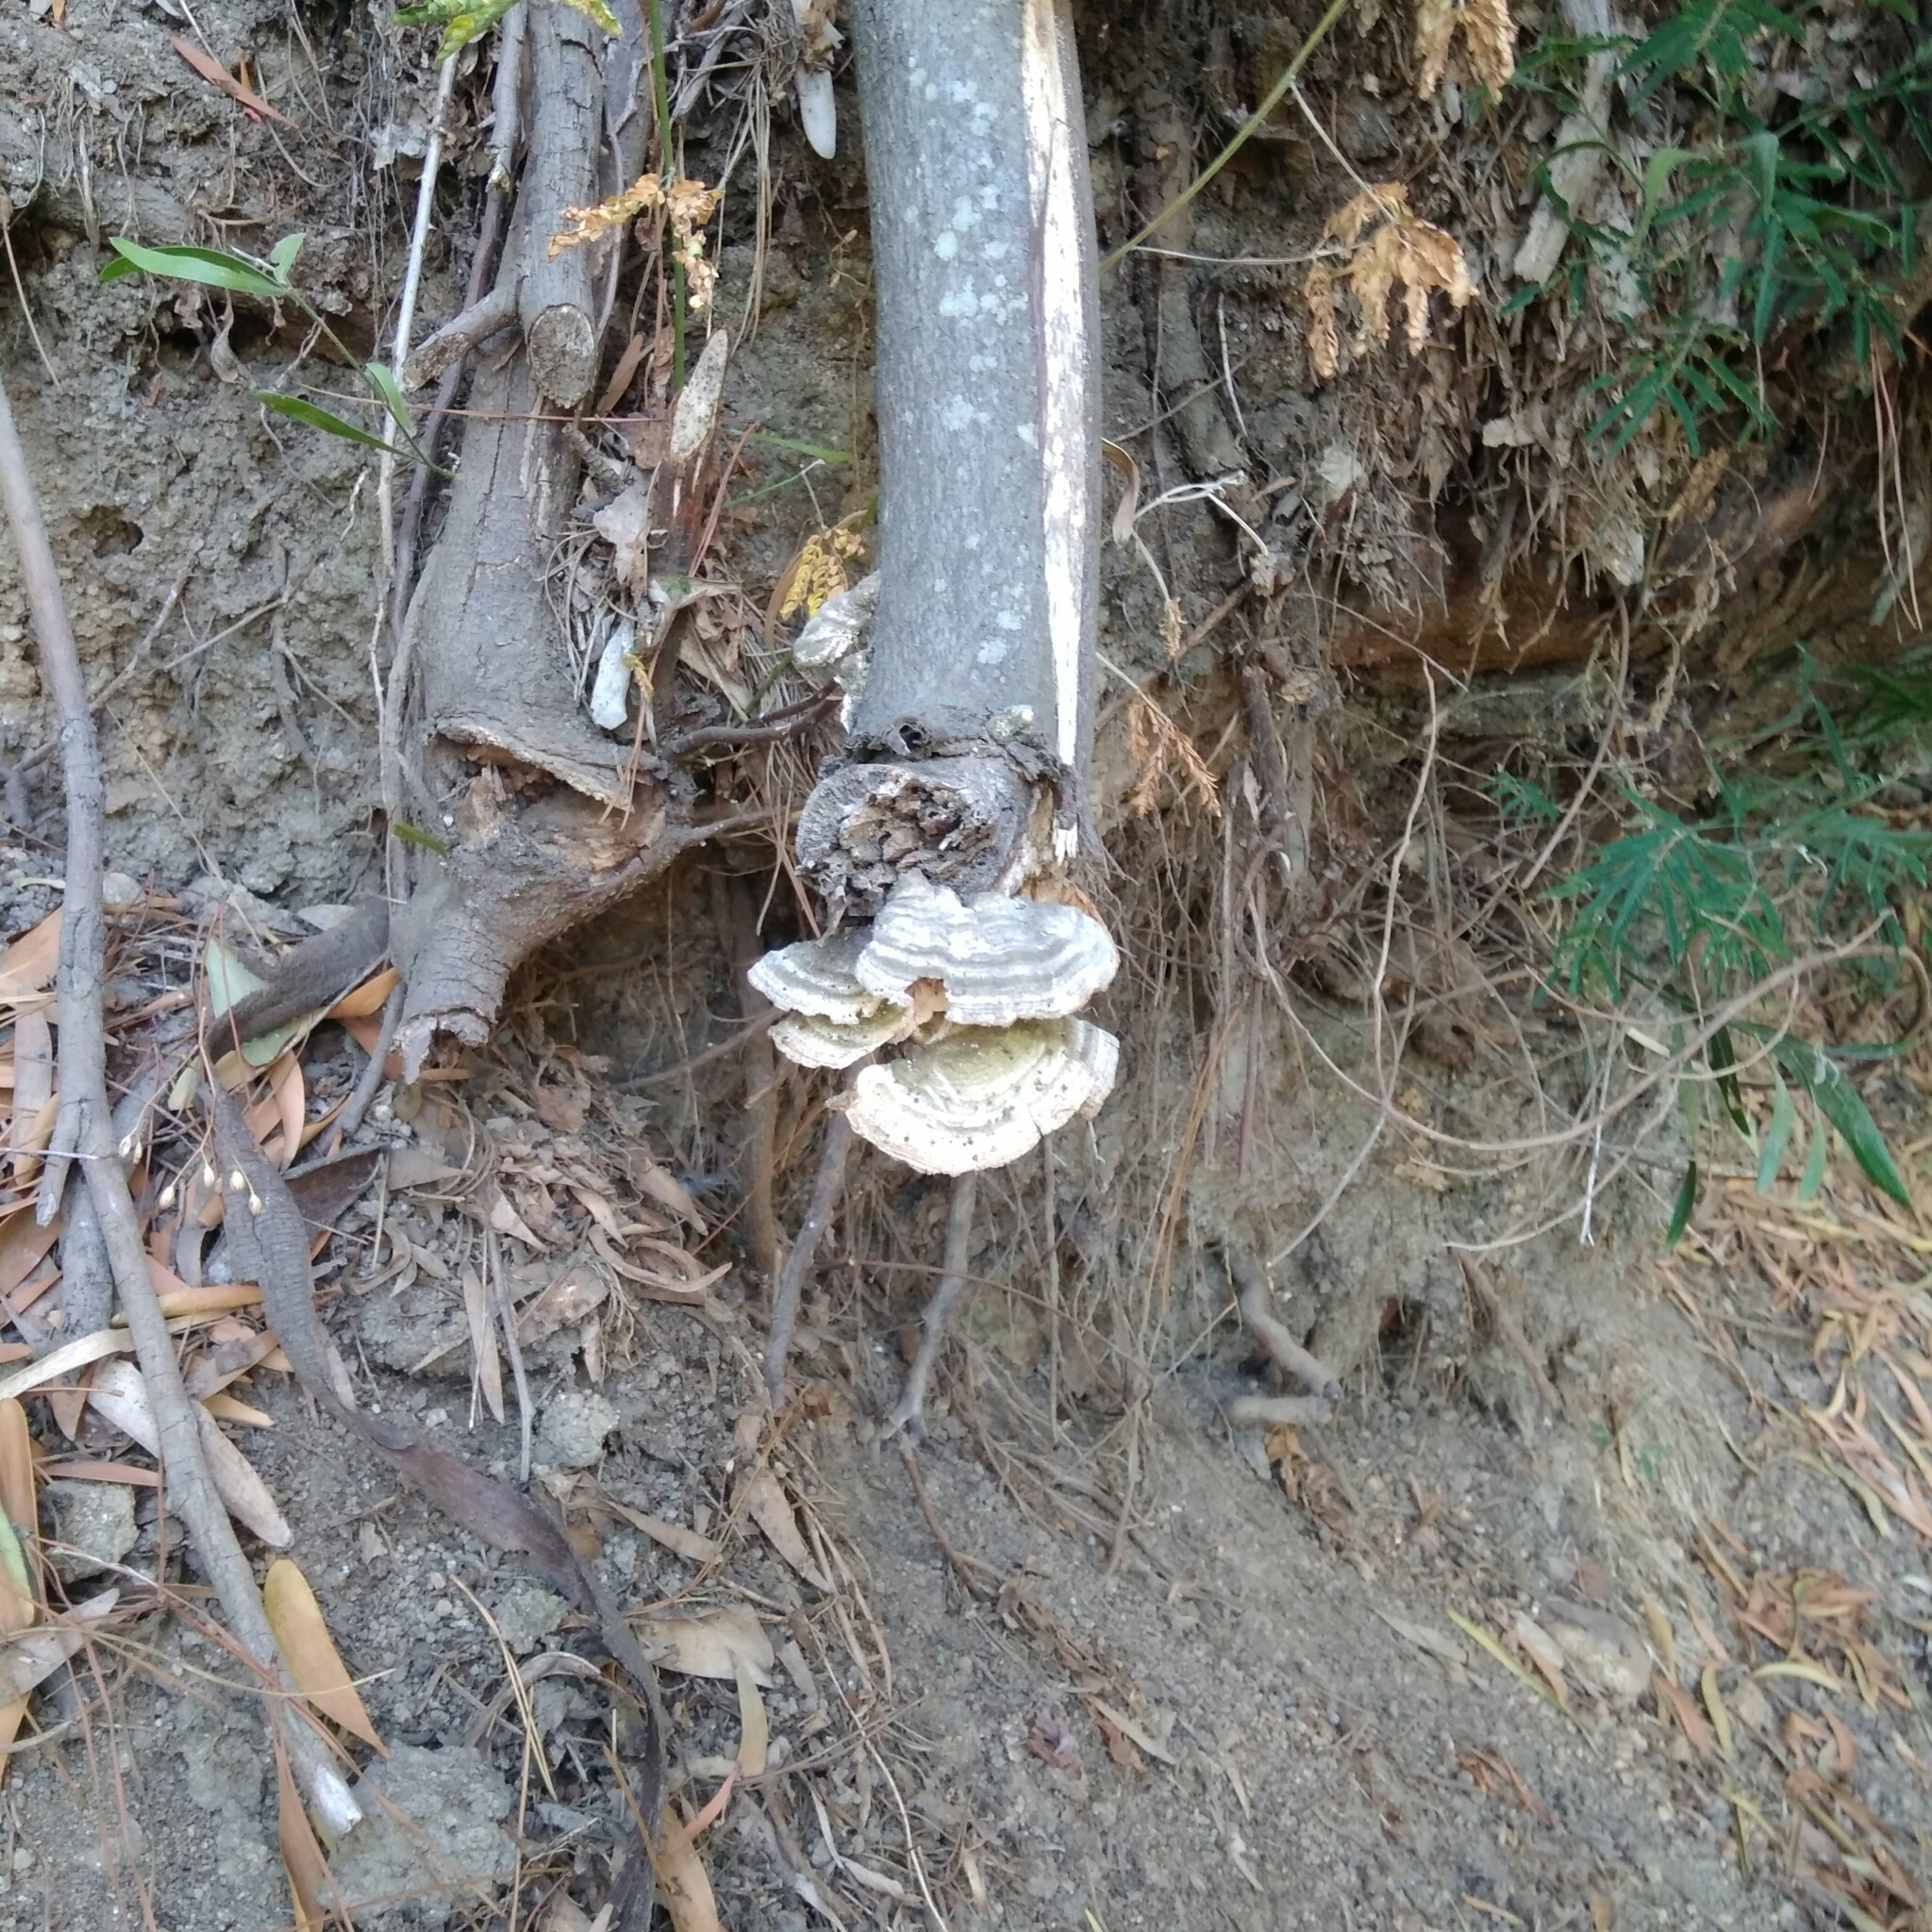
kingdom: Fungi
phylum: Basidiomycota
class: Agaricomycetes
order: Polyporales
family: Polyporaceae
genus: Trametes
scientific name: Trametes versicolor
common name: Turkeytail
